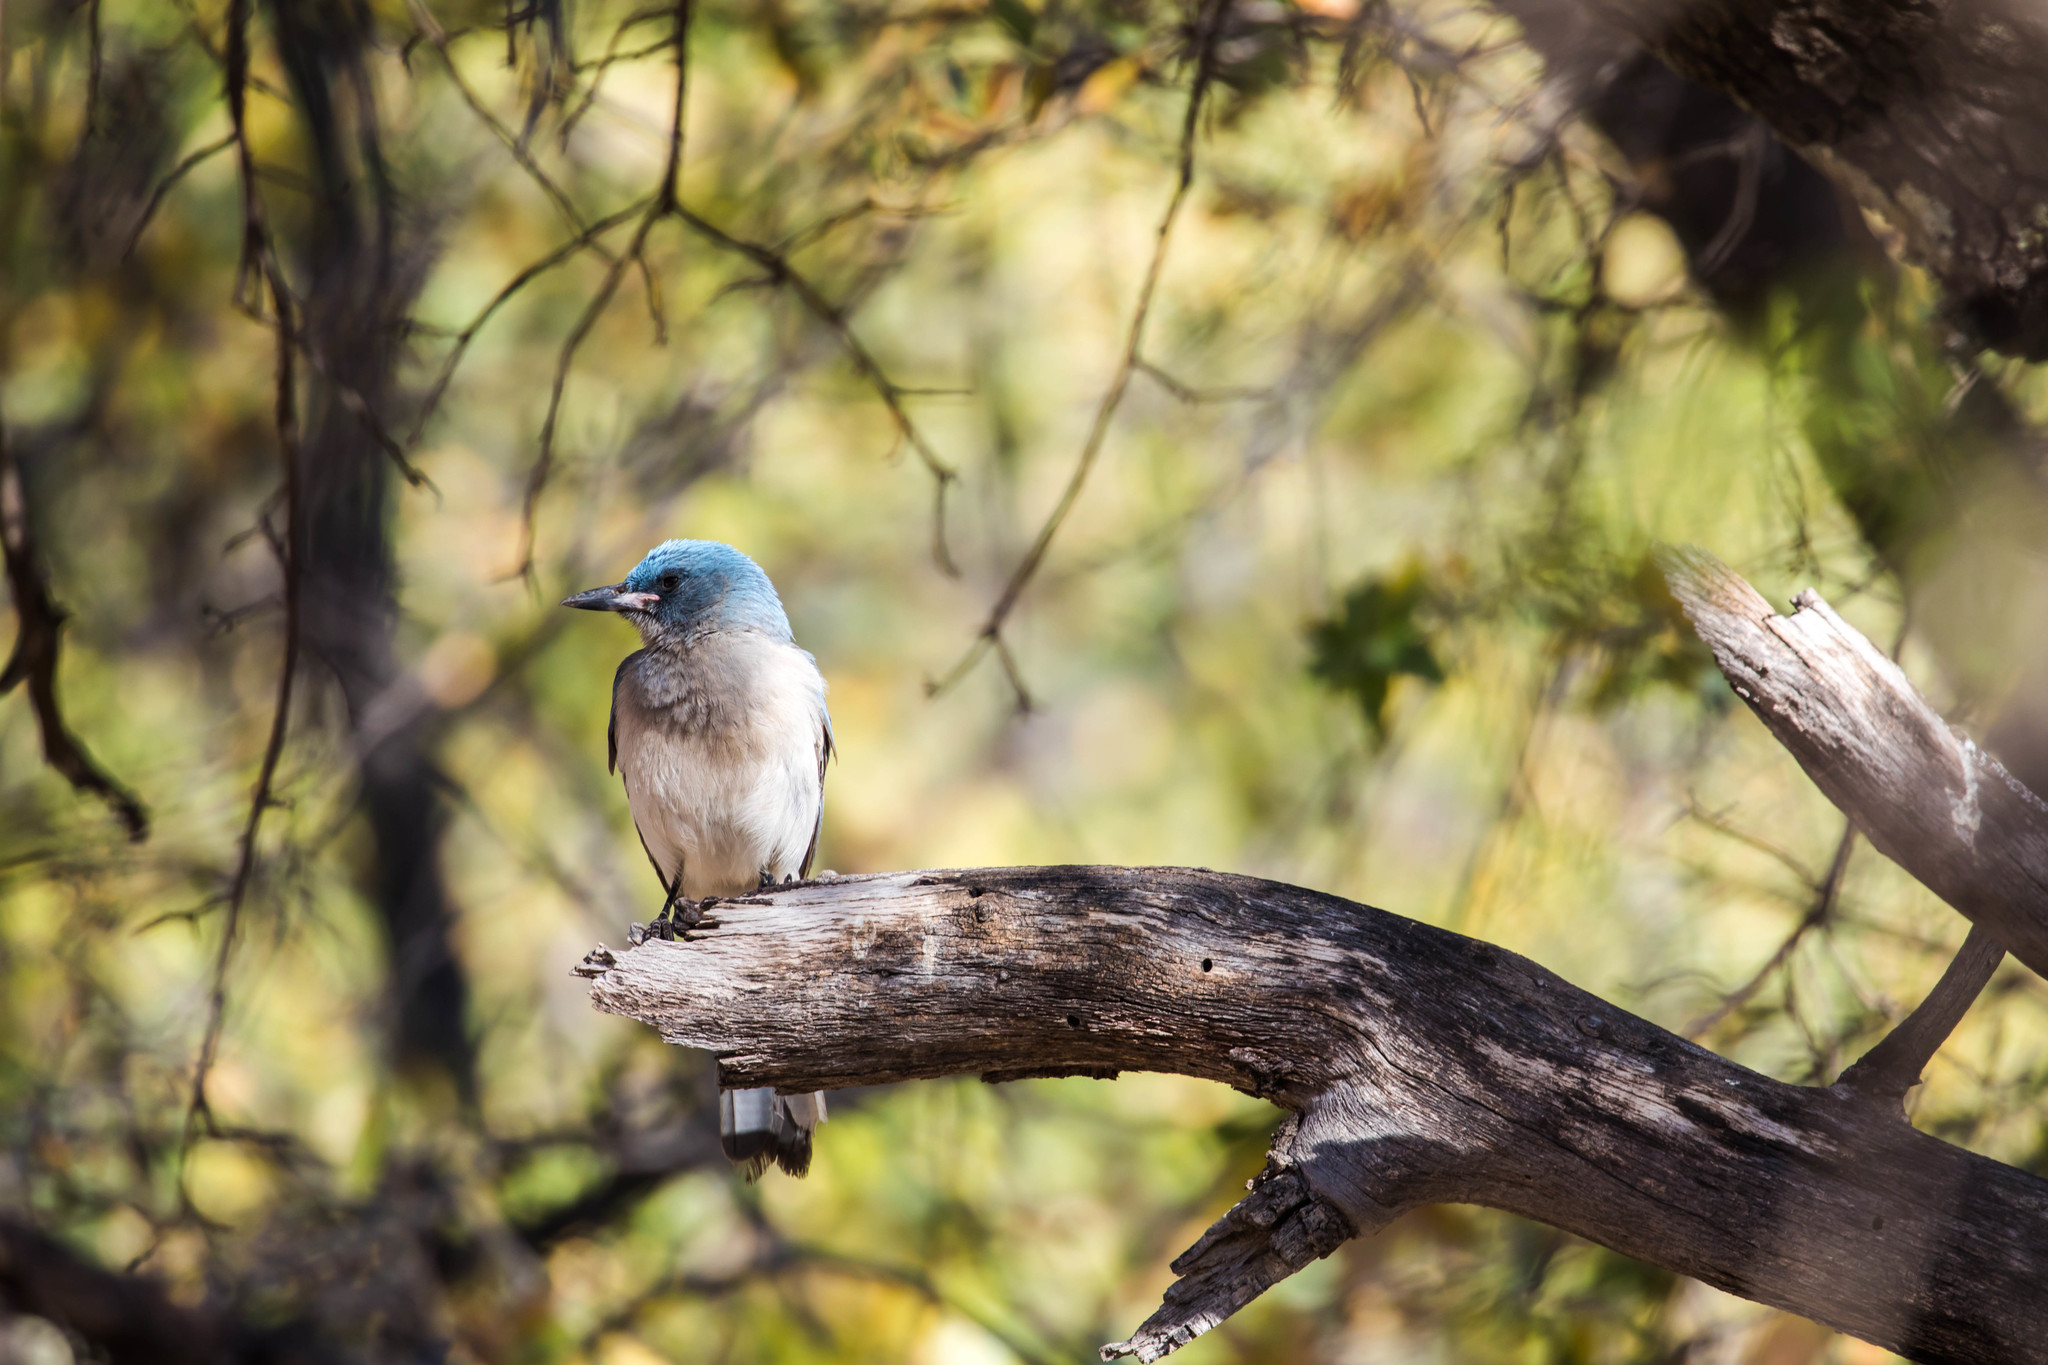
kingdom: Animalia
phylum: Chordata
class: Aves
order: Passeriformes
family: Corvidae
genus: Aphelocoma
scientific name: Aphelocoma wollweberi
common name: Mexican jay
